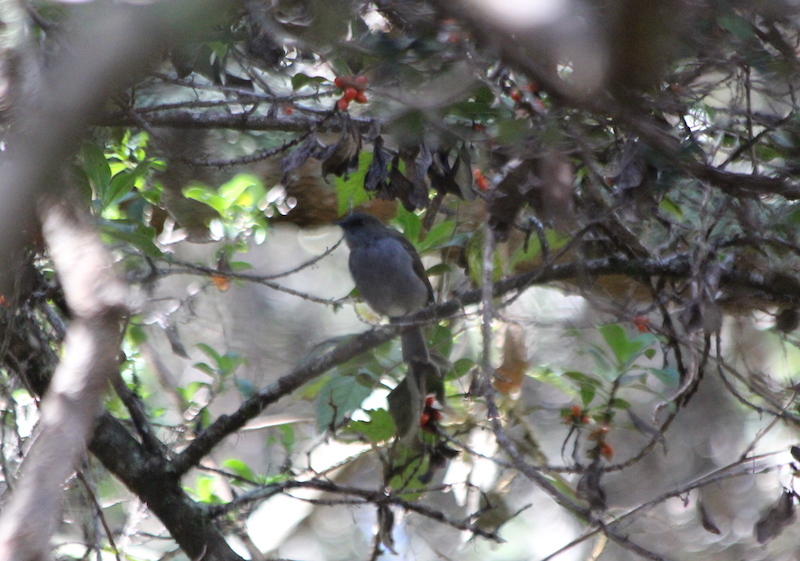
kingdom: Animalia
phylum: Chordata
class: Aves
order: Passeriformes
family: Turdidae
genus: Myadestes
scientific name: Myadestes obscurus
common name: Omao
